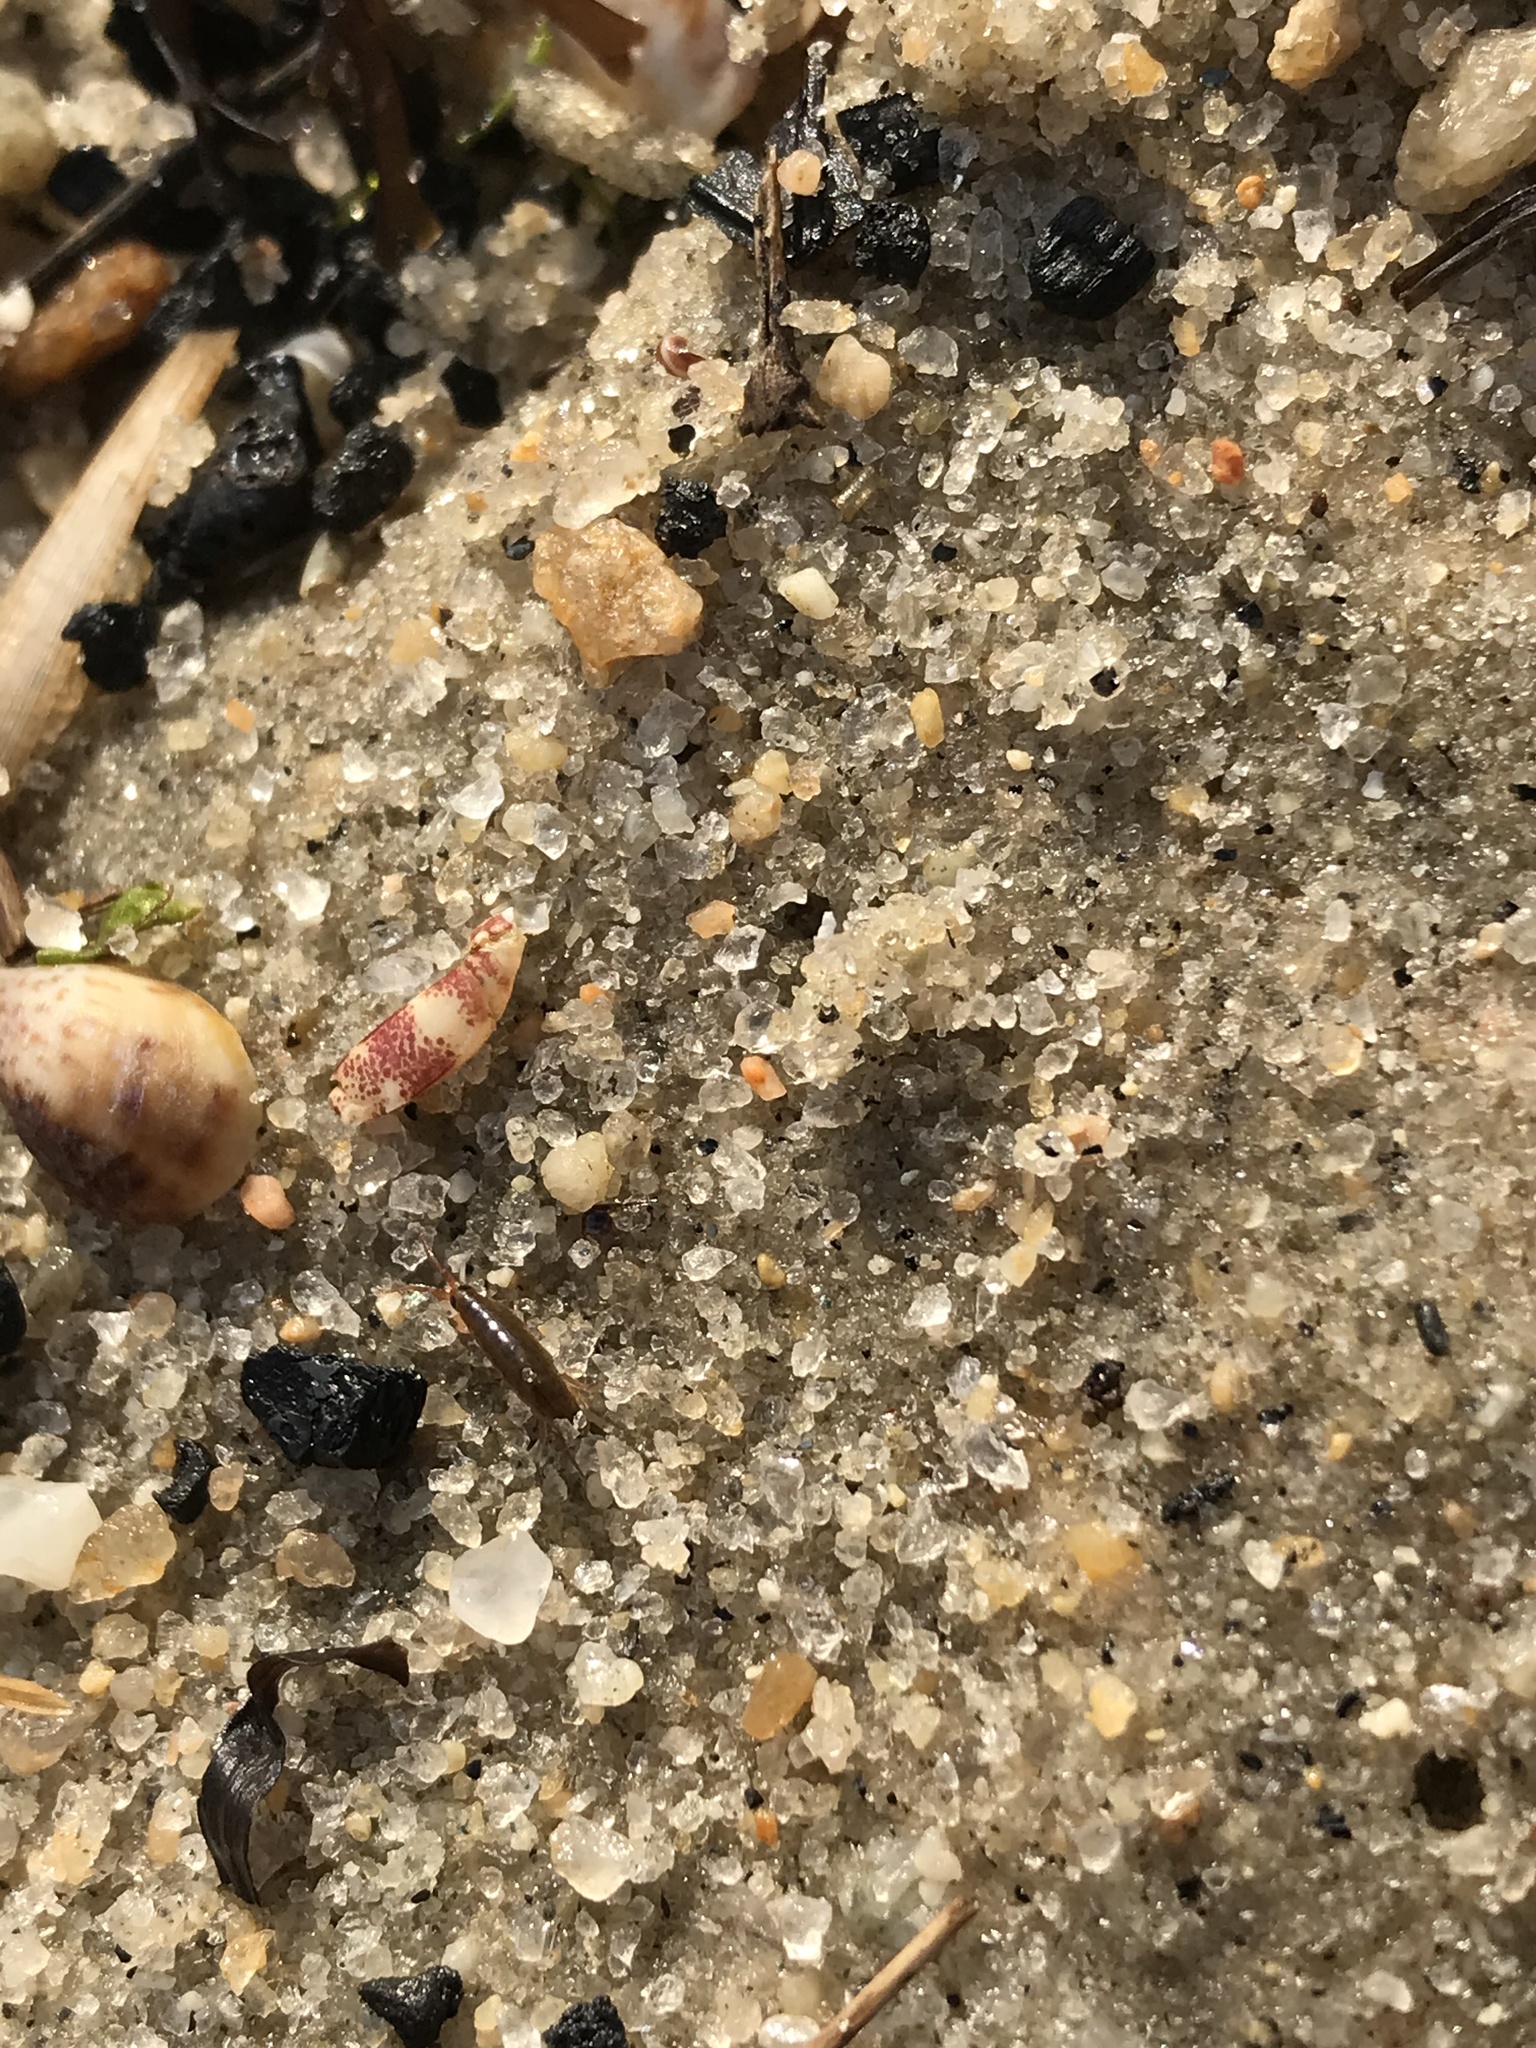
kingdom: Animalia
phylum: Arthropoda
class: Malacostraca
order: Amphipoda
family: Talitridae
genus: Platorchestia
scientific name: Platorchestia platensis
